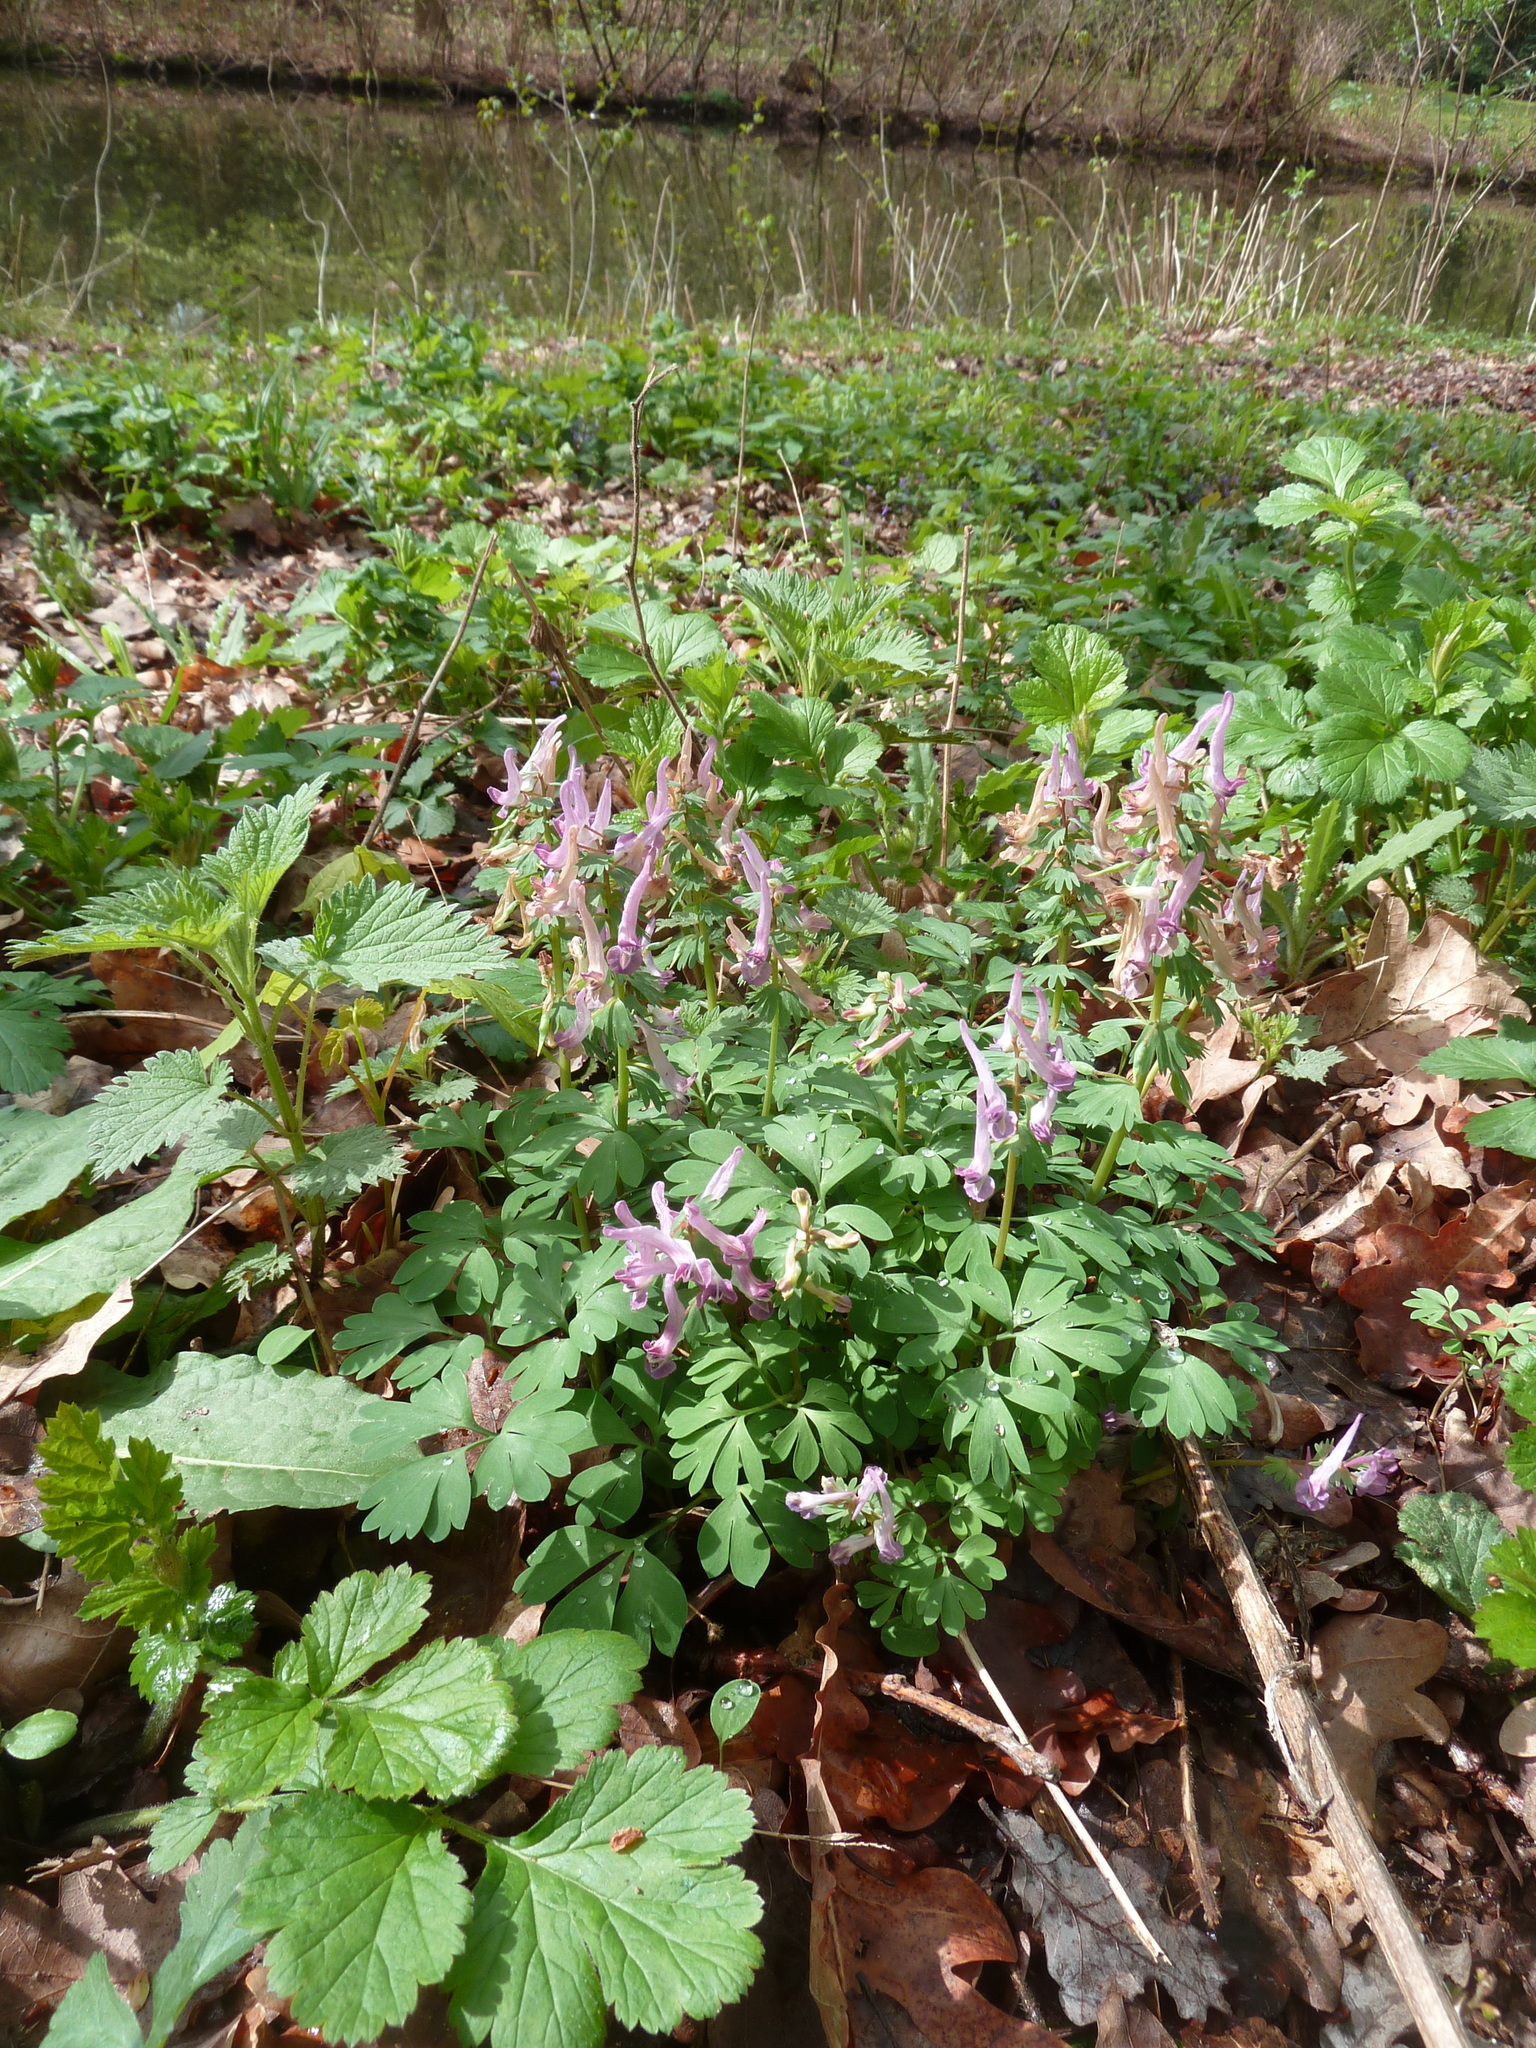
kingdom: Plantae
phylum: Tracheophyta
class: Magnoliopsida
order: Ranunculales
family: Papaveraceae
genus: Corydalis
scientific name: Corydalis solida
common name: Bird-in-a-bush
